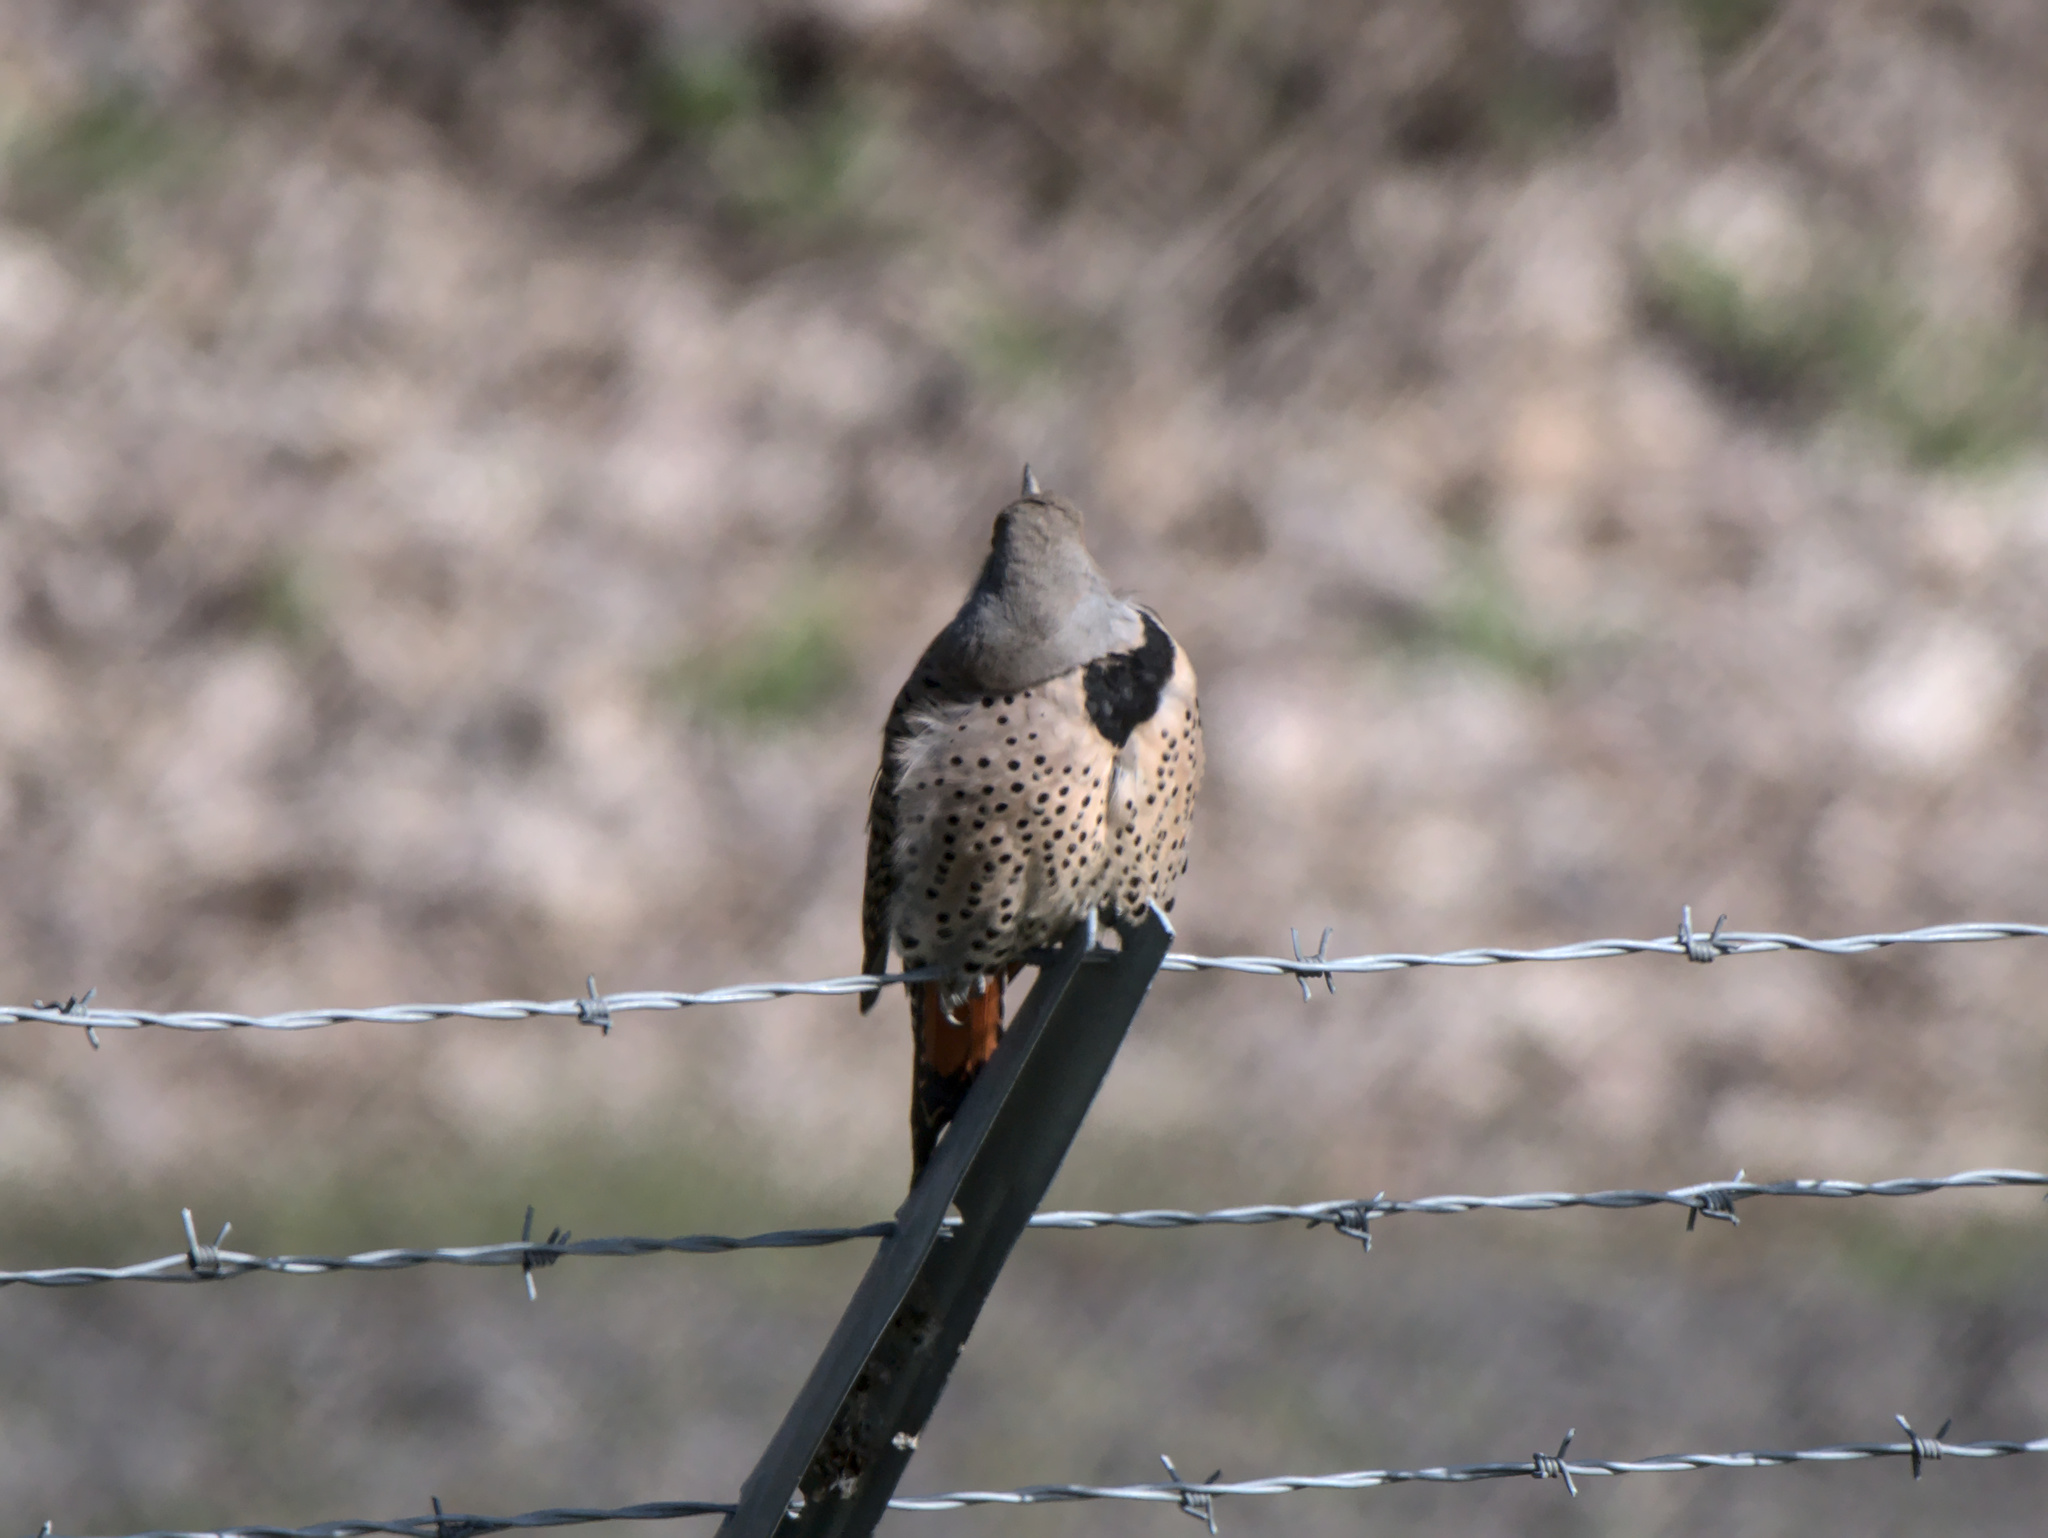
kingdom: Animalia
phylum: Chordata
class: Aves
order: Piciformes
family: Picidae
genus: Colaptes
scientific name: Colaptes auratus
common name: Northern flicker
